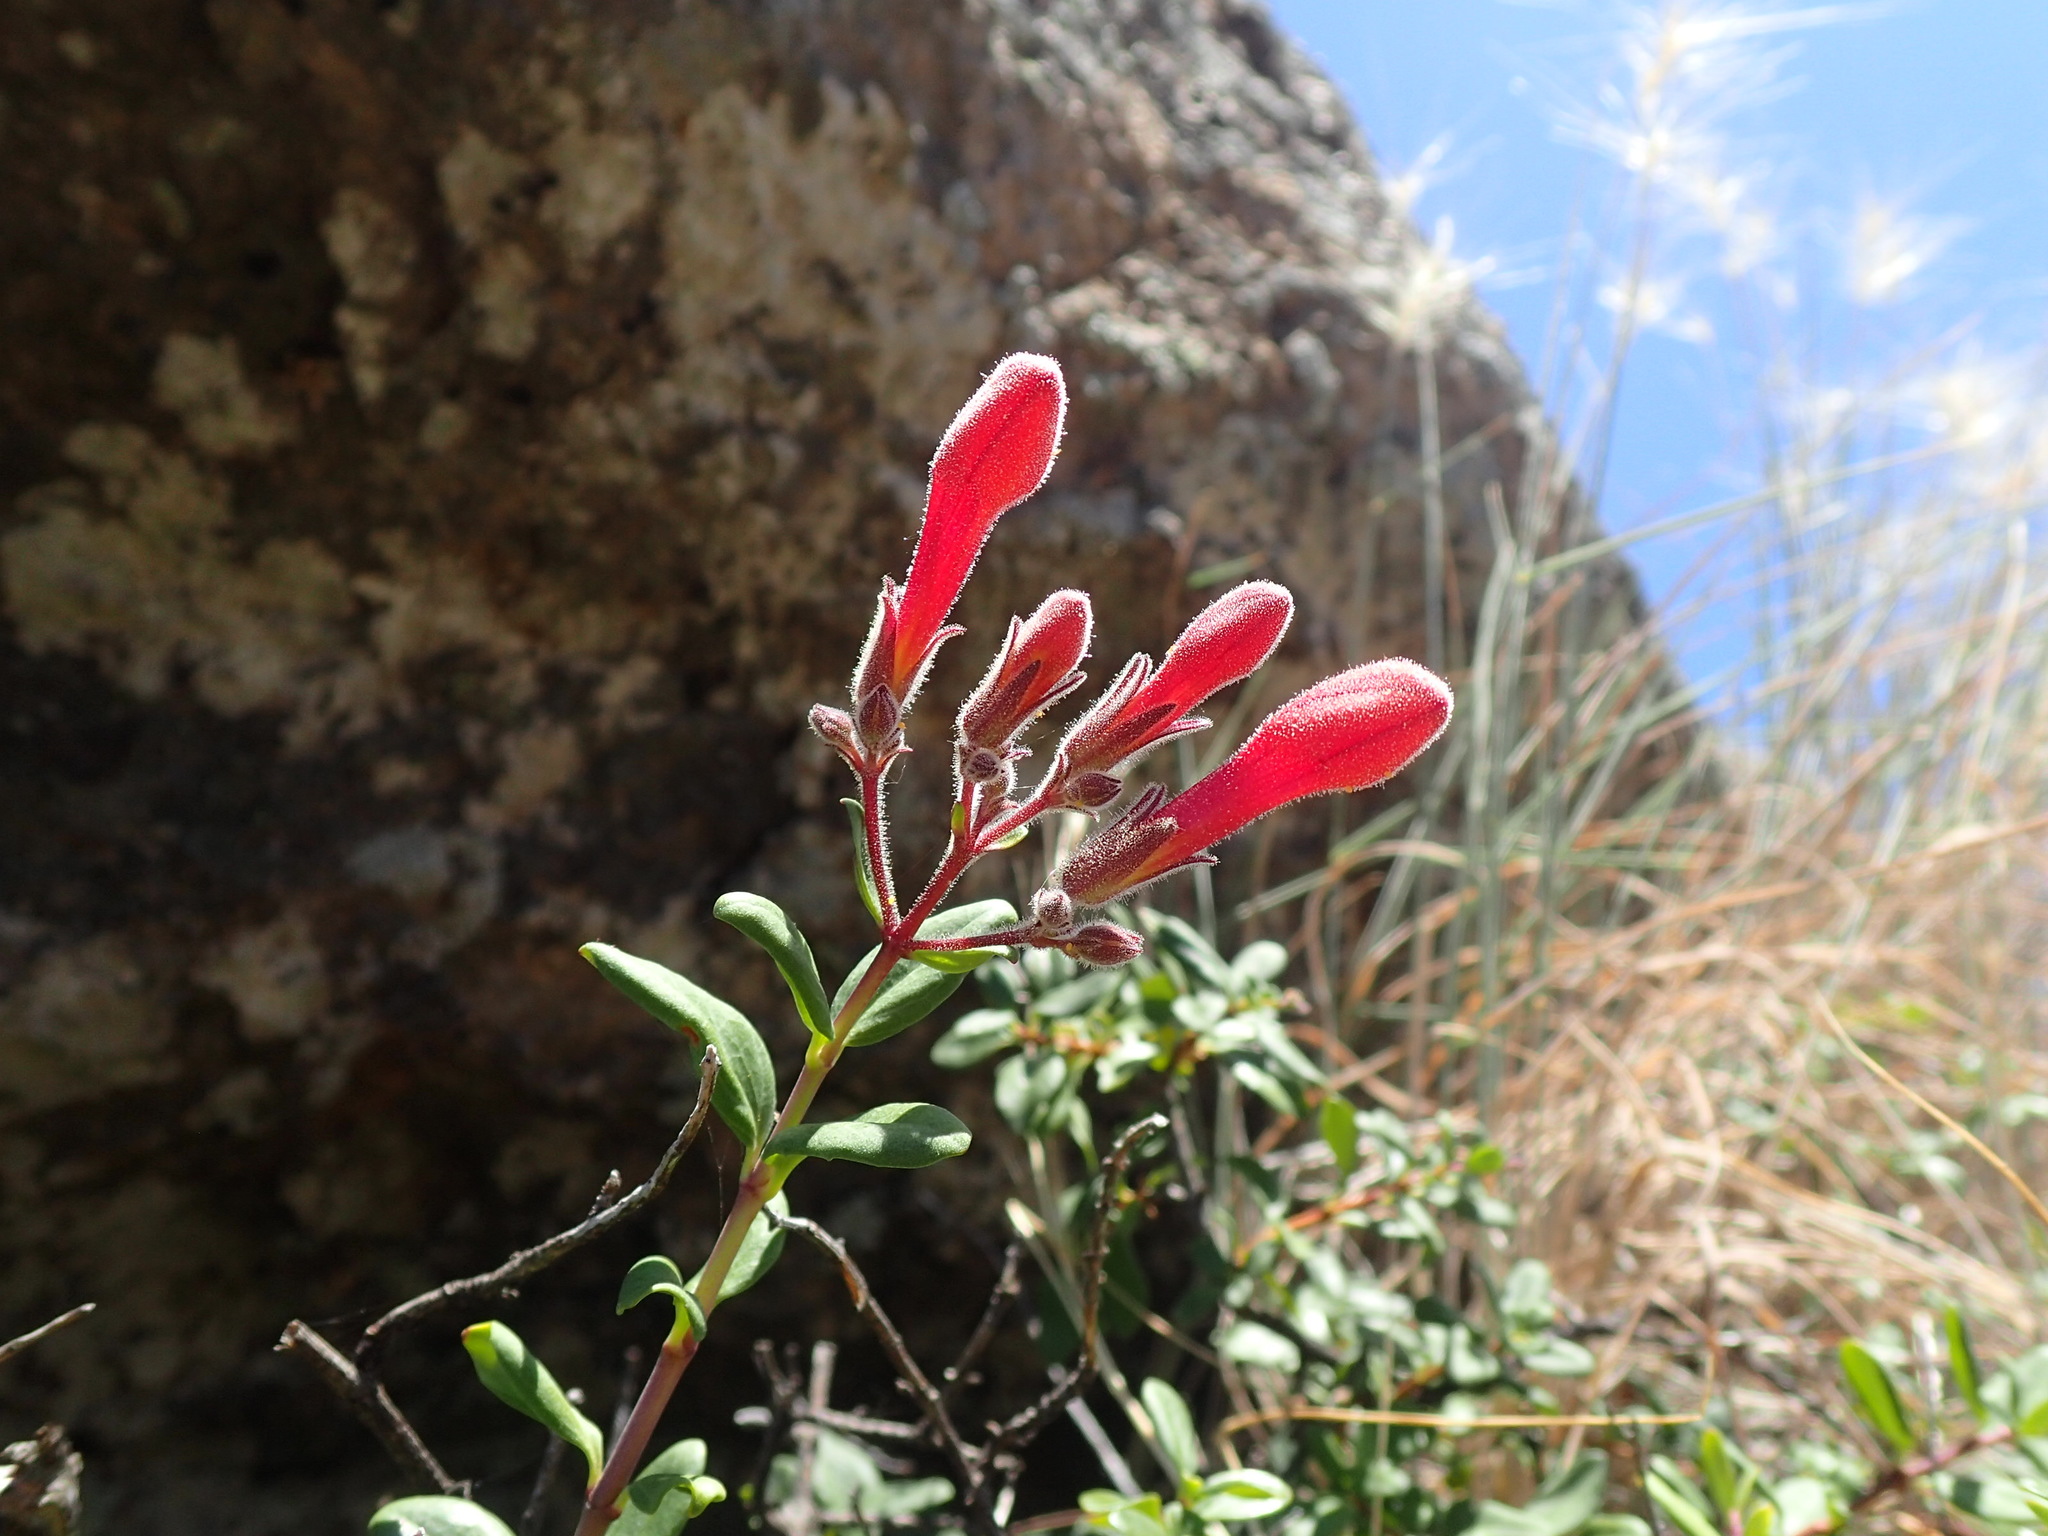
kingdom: Plantae
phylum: Tracheophyta
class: Magnoliopsida
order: Lamiales
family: Plantaginaceae
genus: Keckiella
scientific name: Keckiella corymbosa
